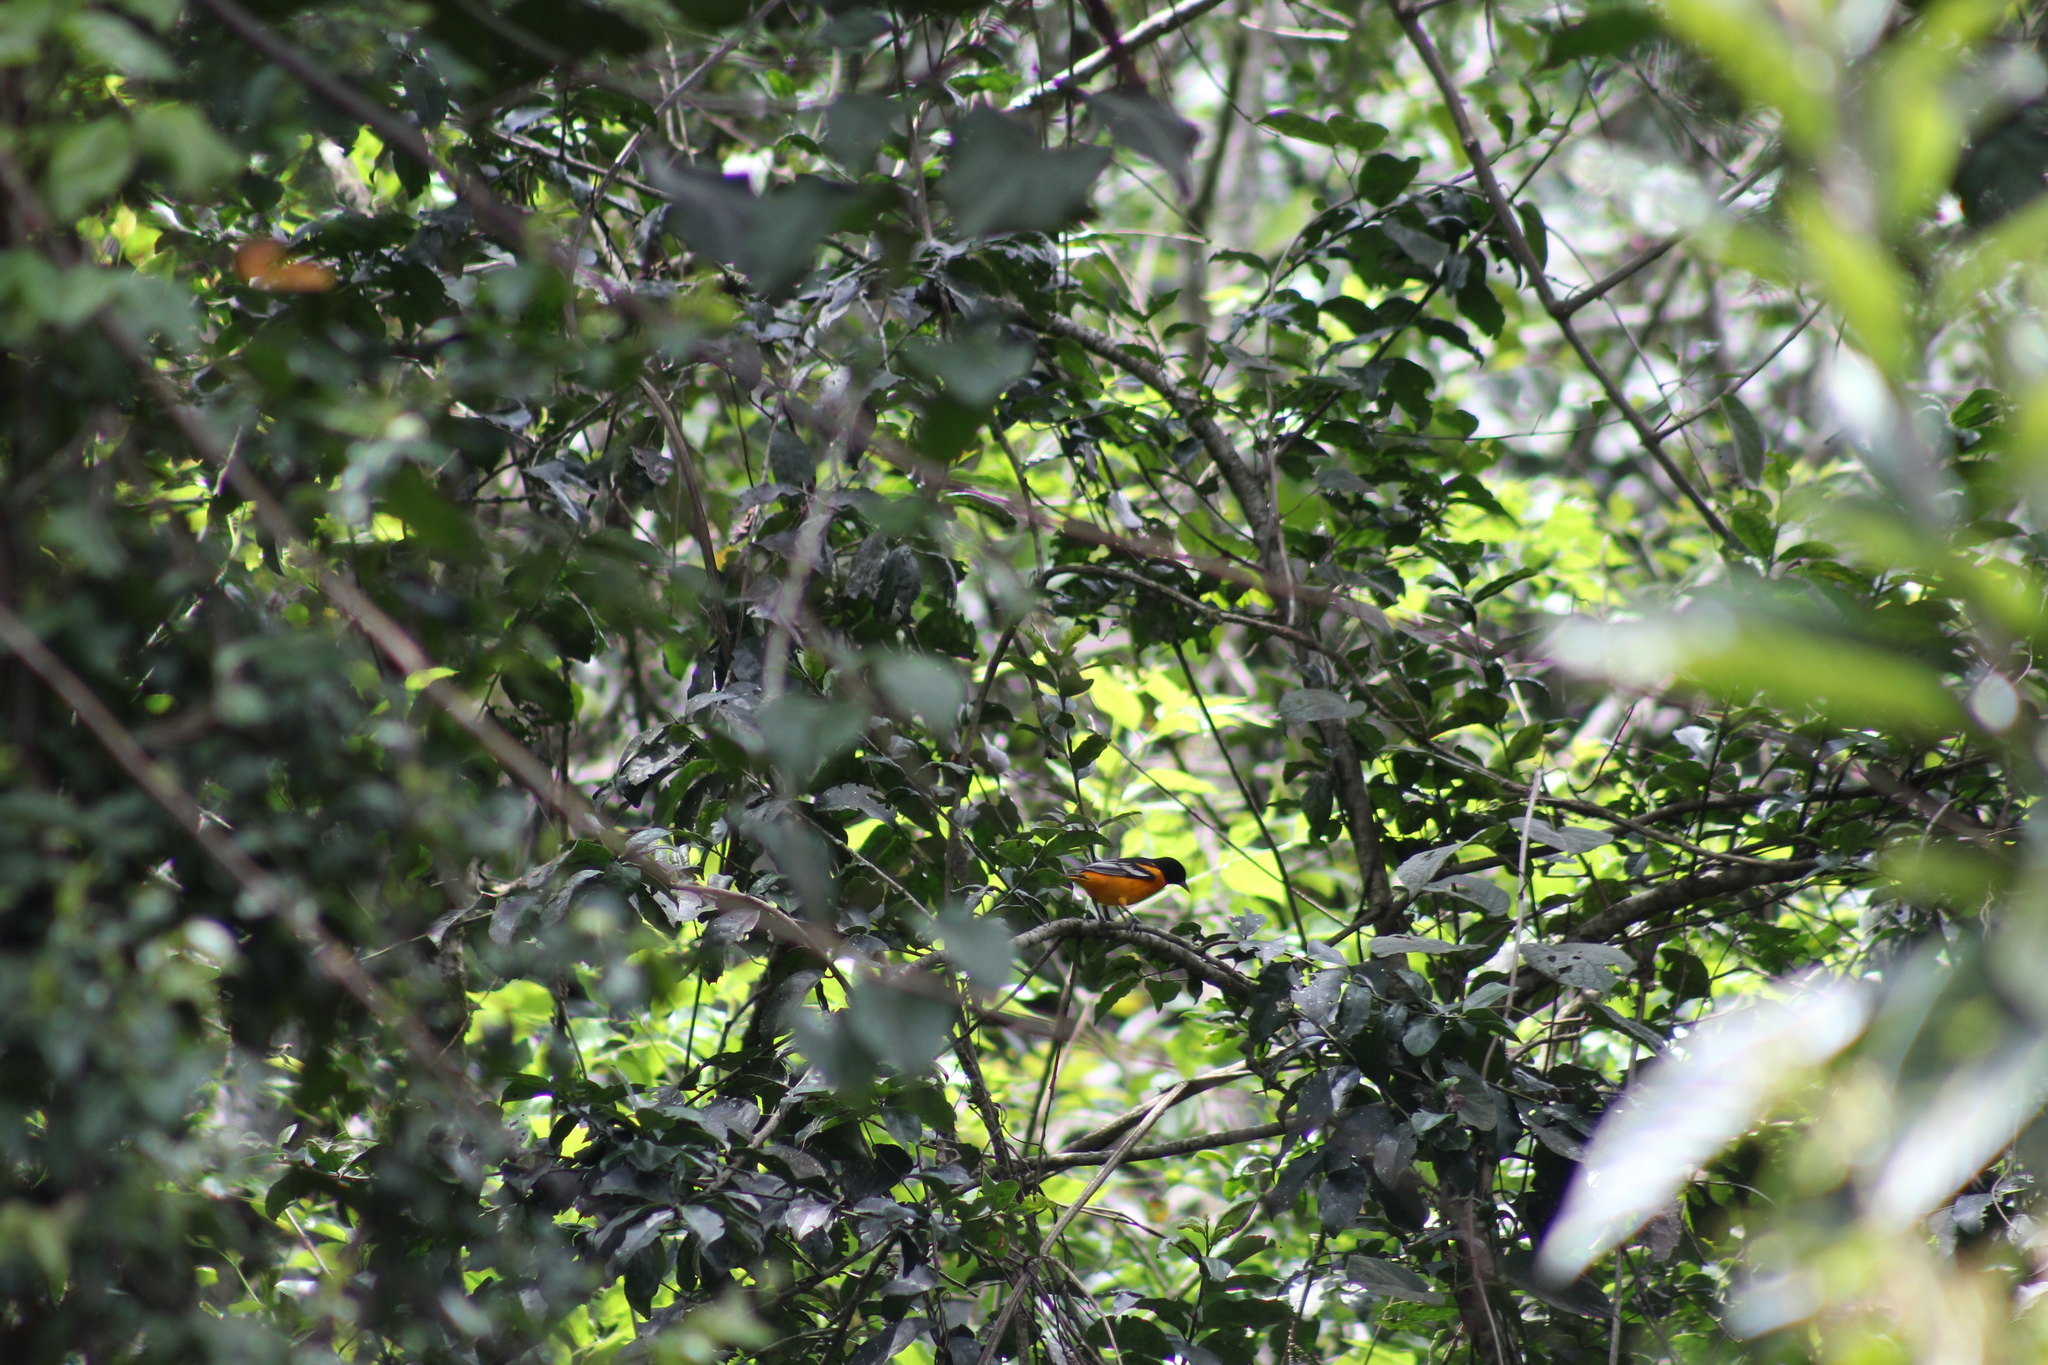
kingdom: Animalia
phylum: Chordata
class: Aves
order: Passeriformes
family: Icteridae
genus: Icterus
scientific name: Icterus galbula
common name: Baltimore oriole
